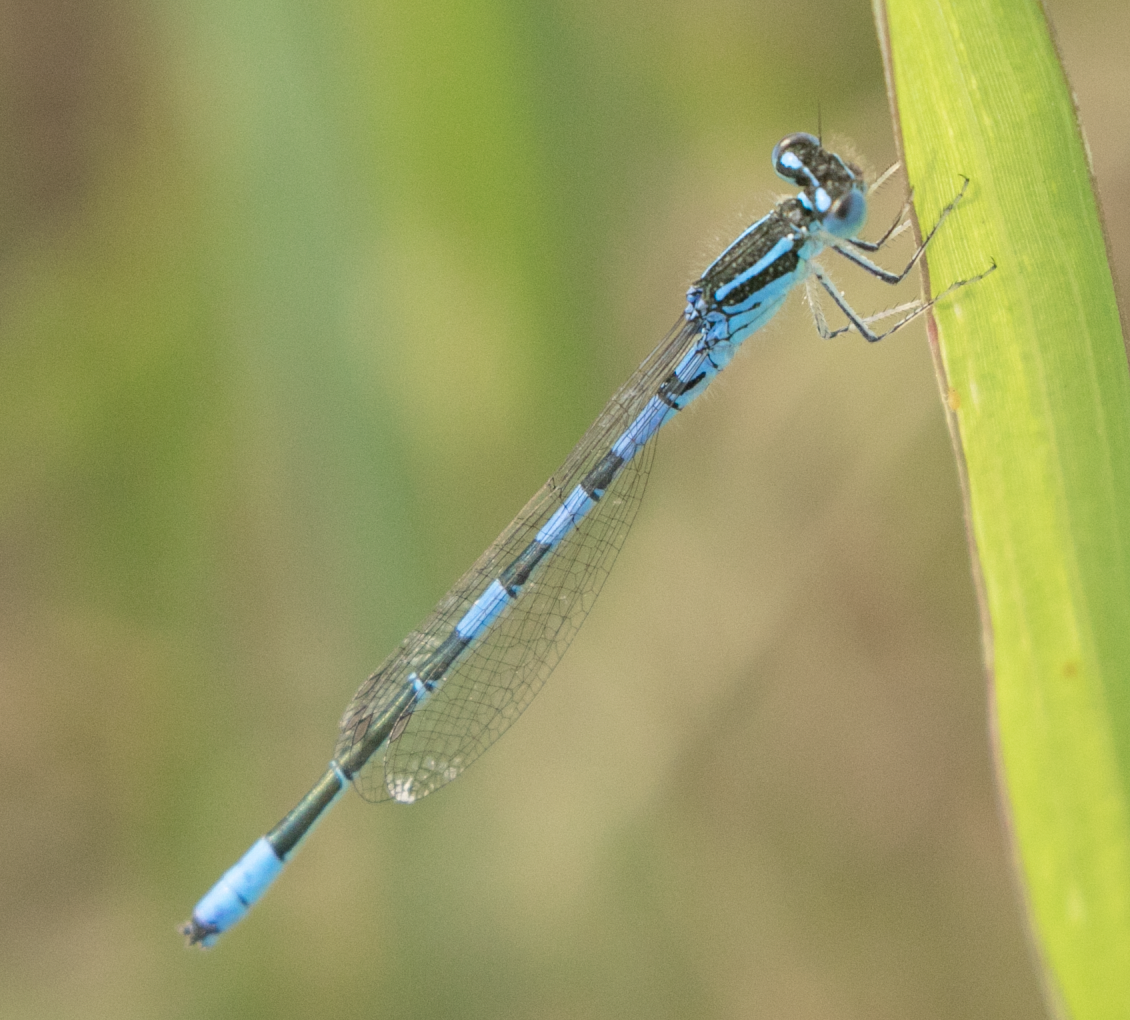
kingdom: Animalia
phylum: Arthropoda
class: Insecta
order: Odonata
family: Coenagrionidae
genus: Coenagrion
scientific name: Coenagrion scitulum
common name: Dainty bluet
